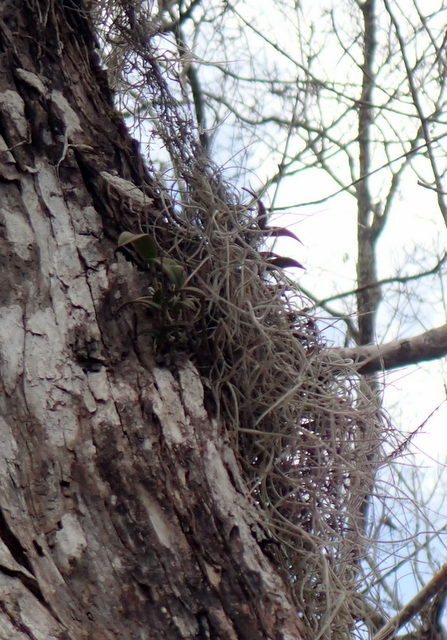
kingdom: Plantae
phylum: Tracheophyta
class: Liliopsida
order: Asparagales
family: Orchidaceae
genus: Epidendrum
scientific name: Epidendrum conopseum
